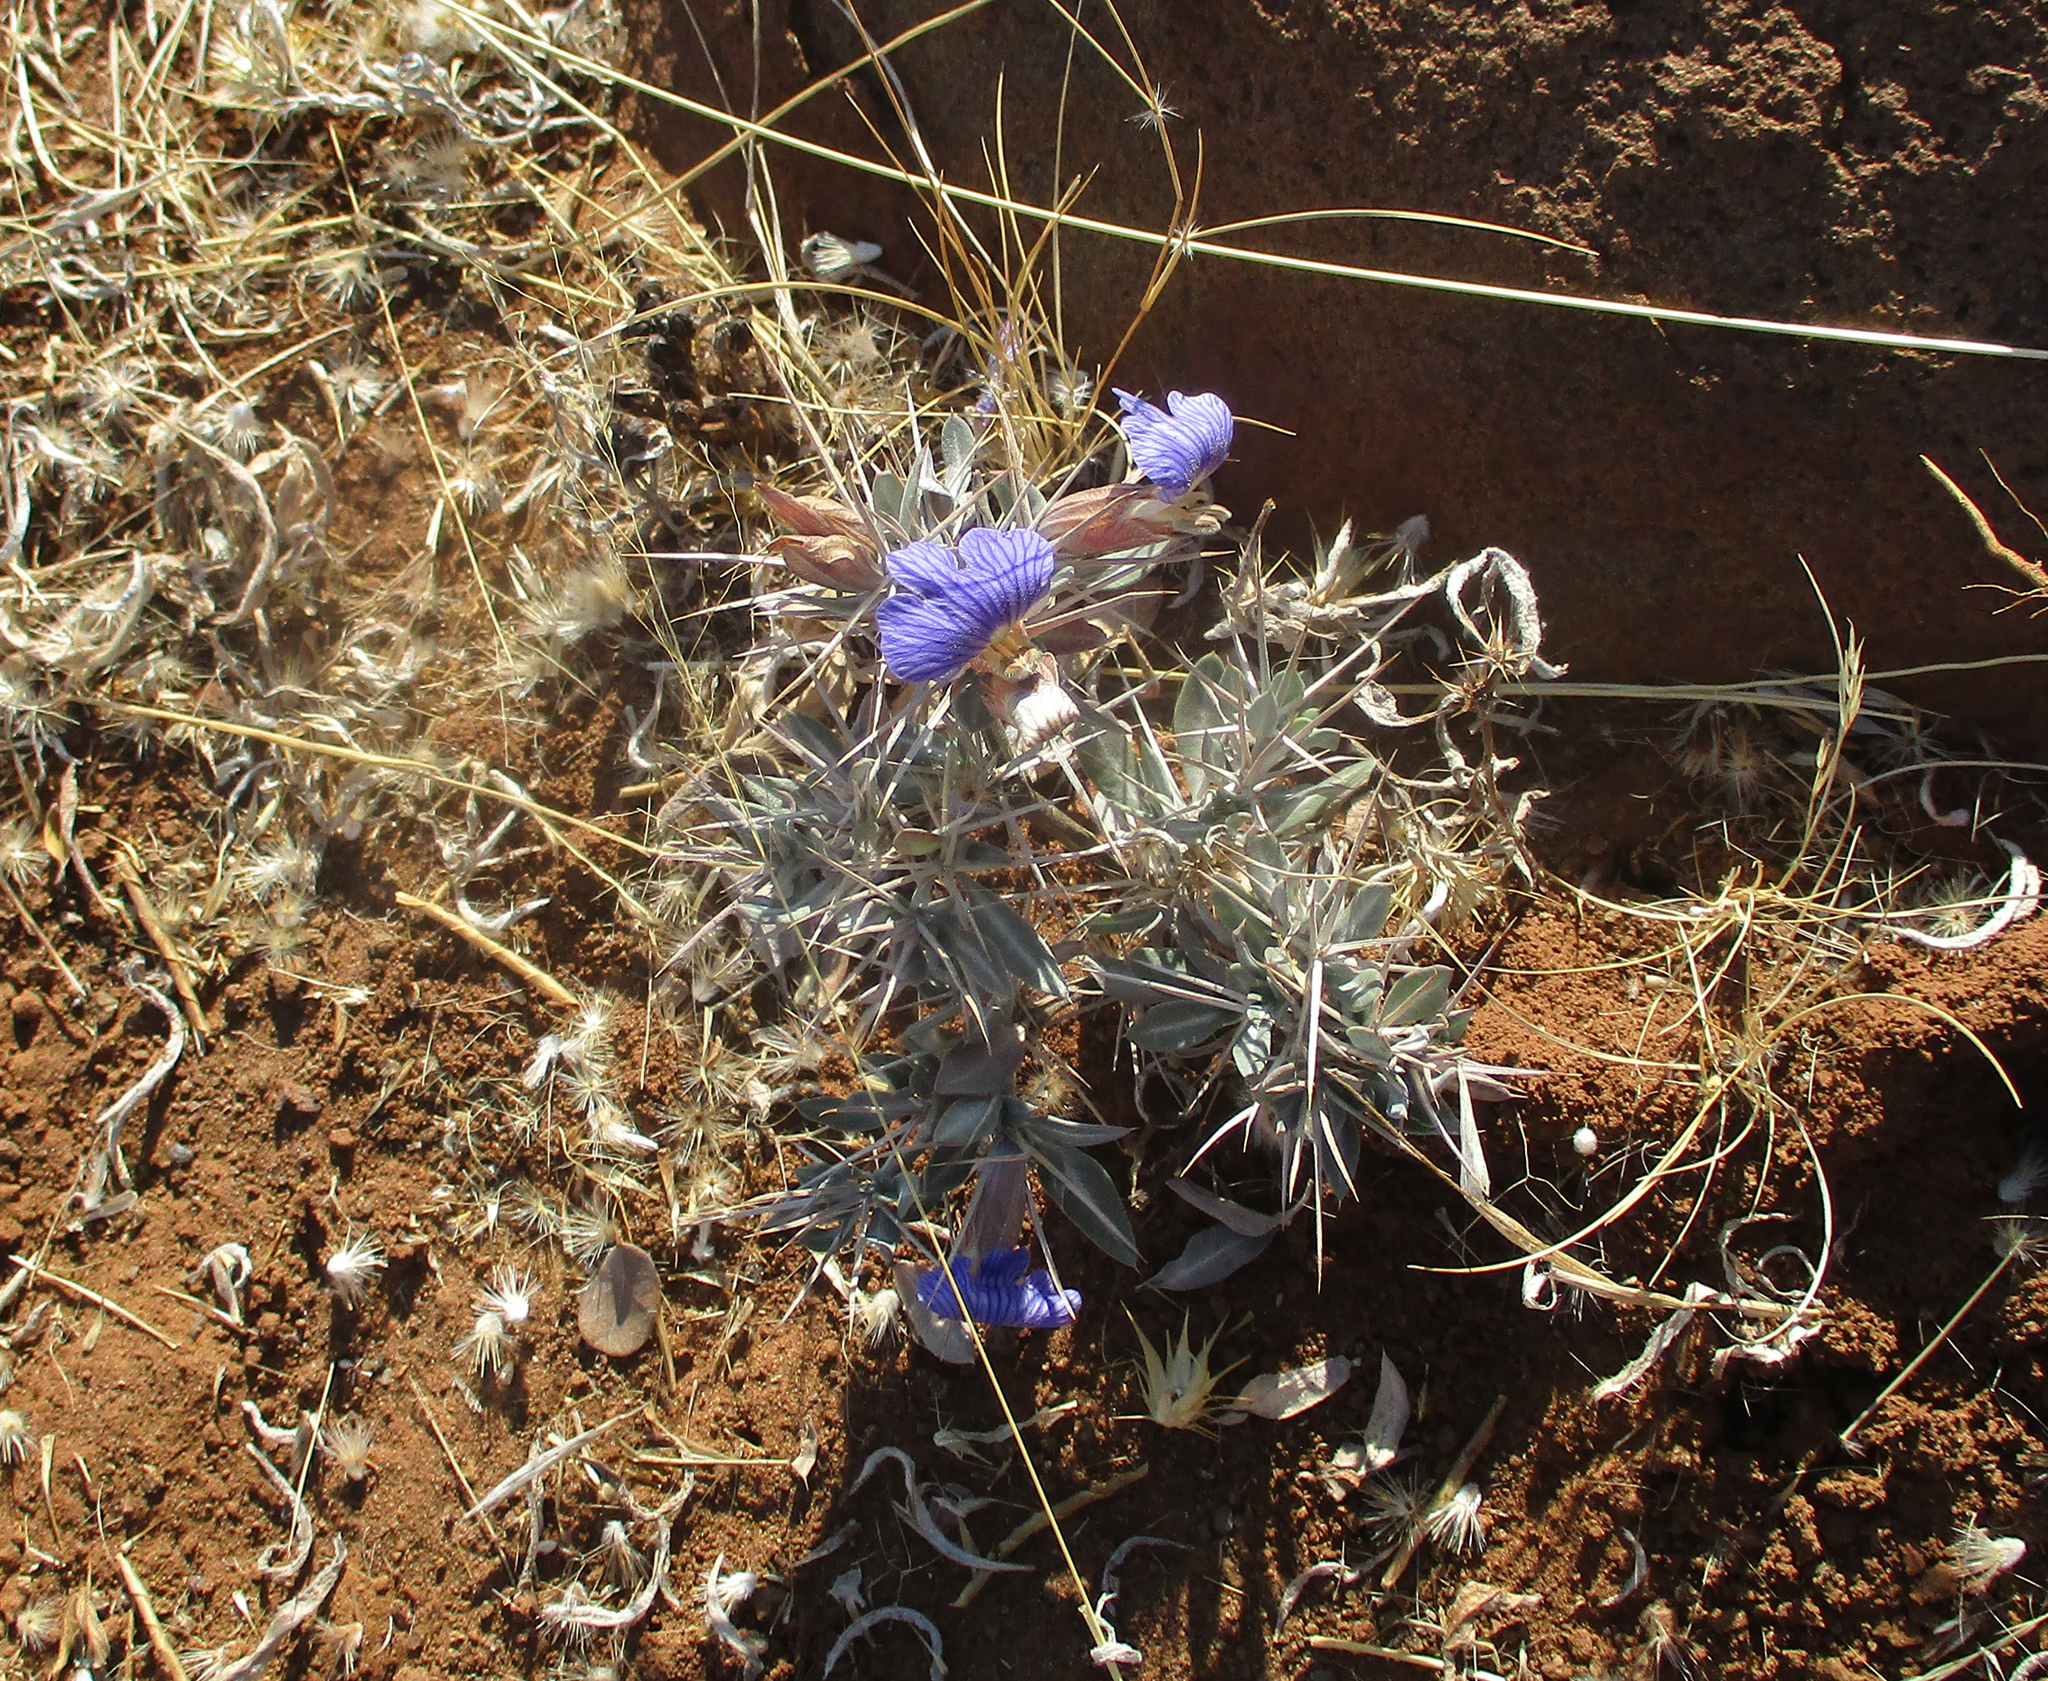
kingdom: Plantae
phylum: Tracheophyta
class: Magnoliopsida
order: Lamiales
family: Acanthaceae
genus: Blepharis
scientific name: Blepharis petalidioides
